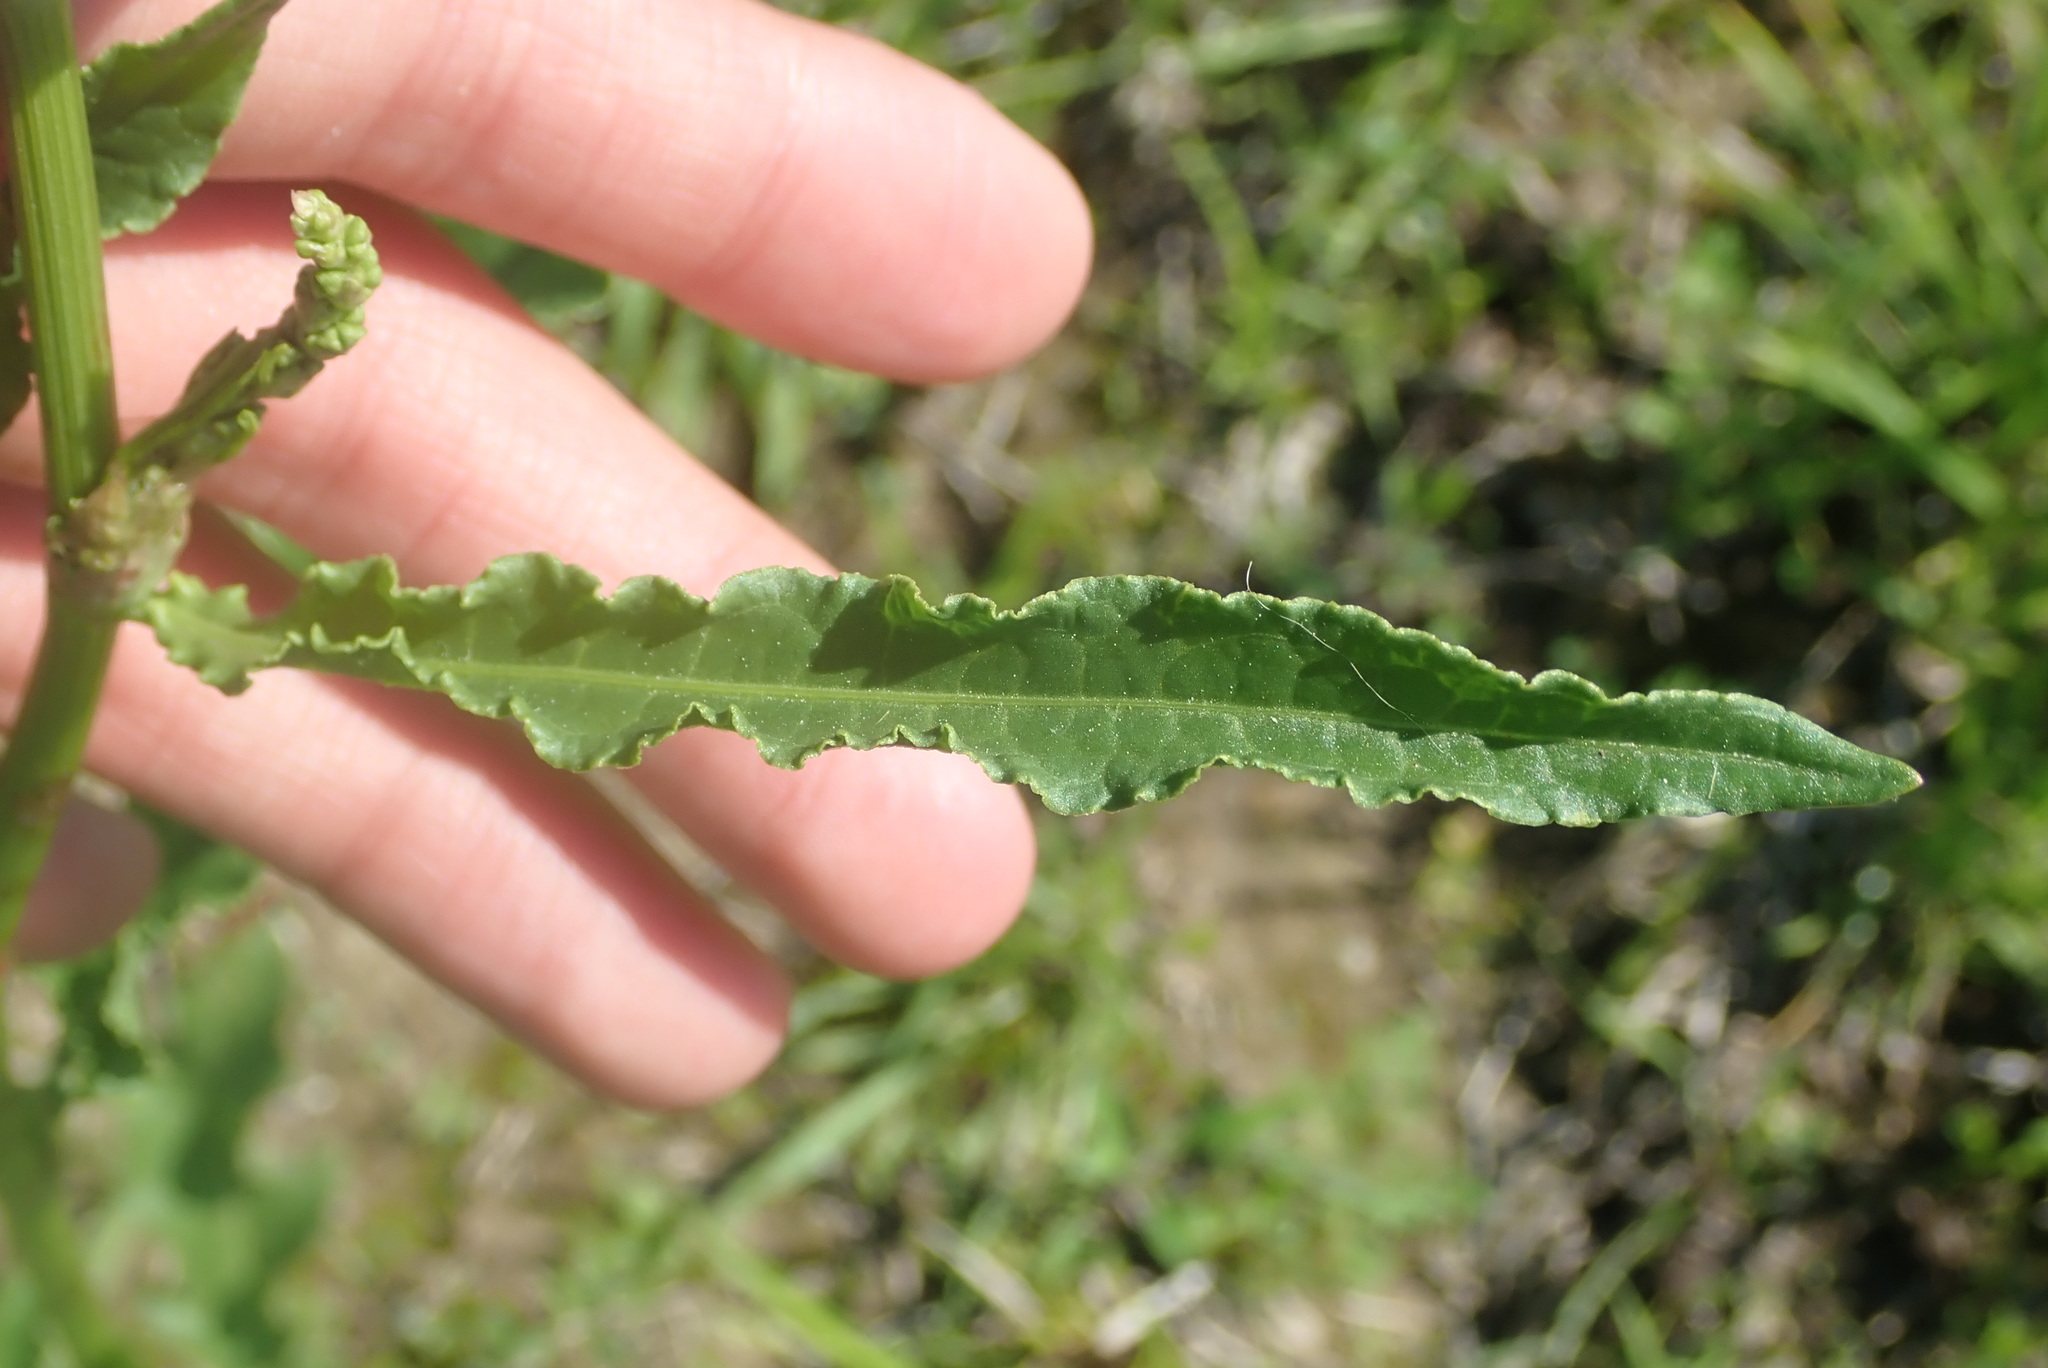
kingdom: Plantae
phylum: Tracheophyta
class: Magnoliopsida
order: Caryophyllales
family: Polygonaceae
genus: Rumex
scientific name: Rumex crispus
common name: Curled dock
